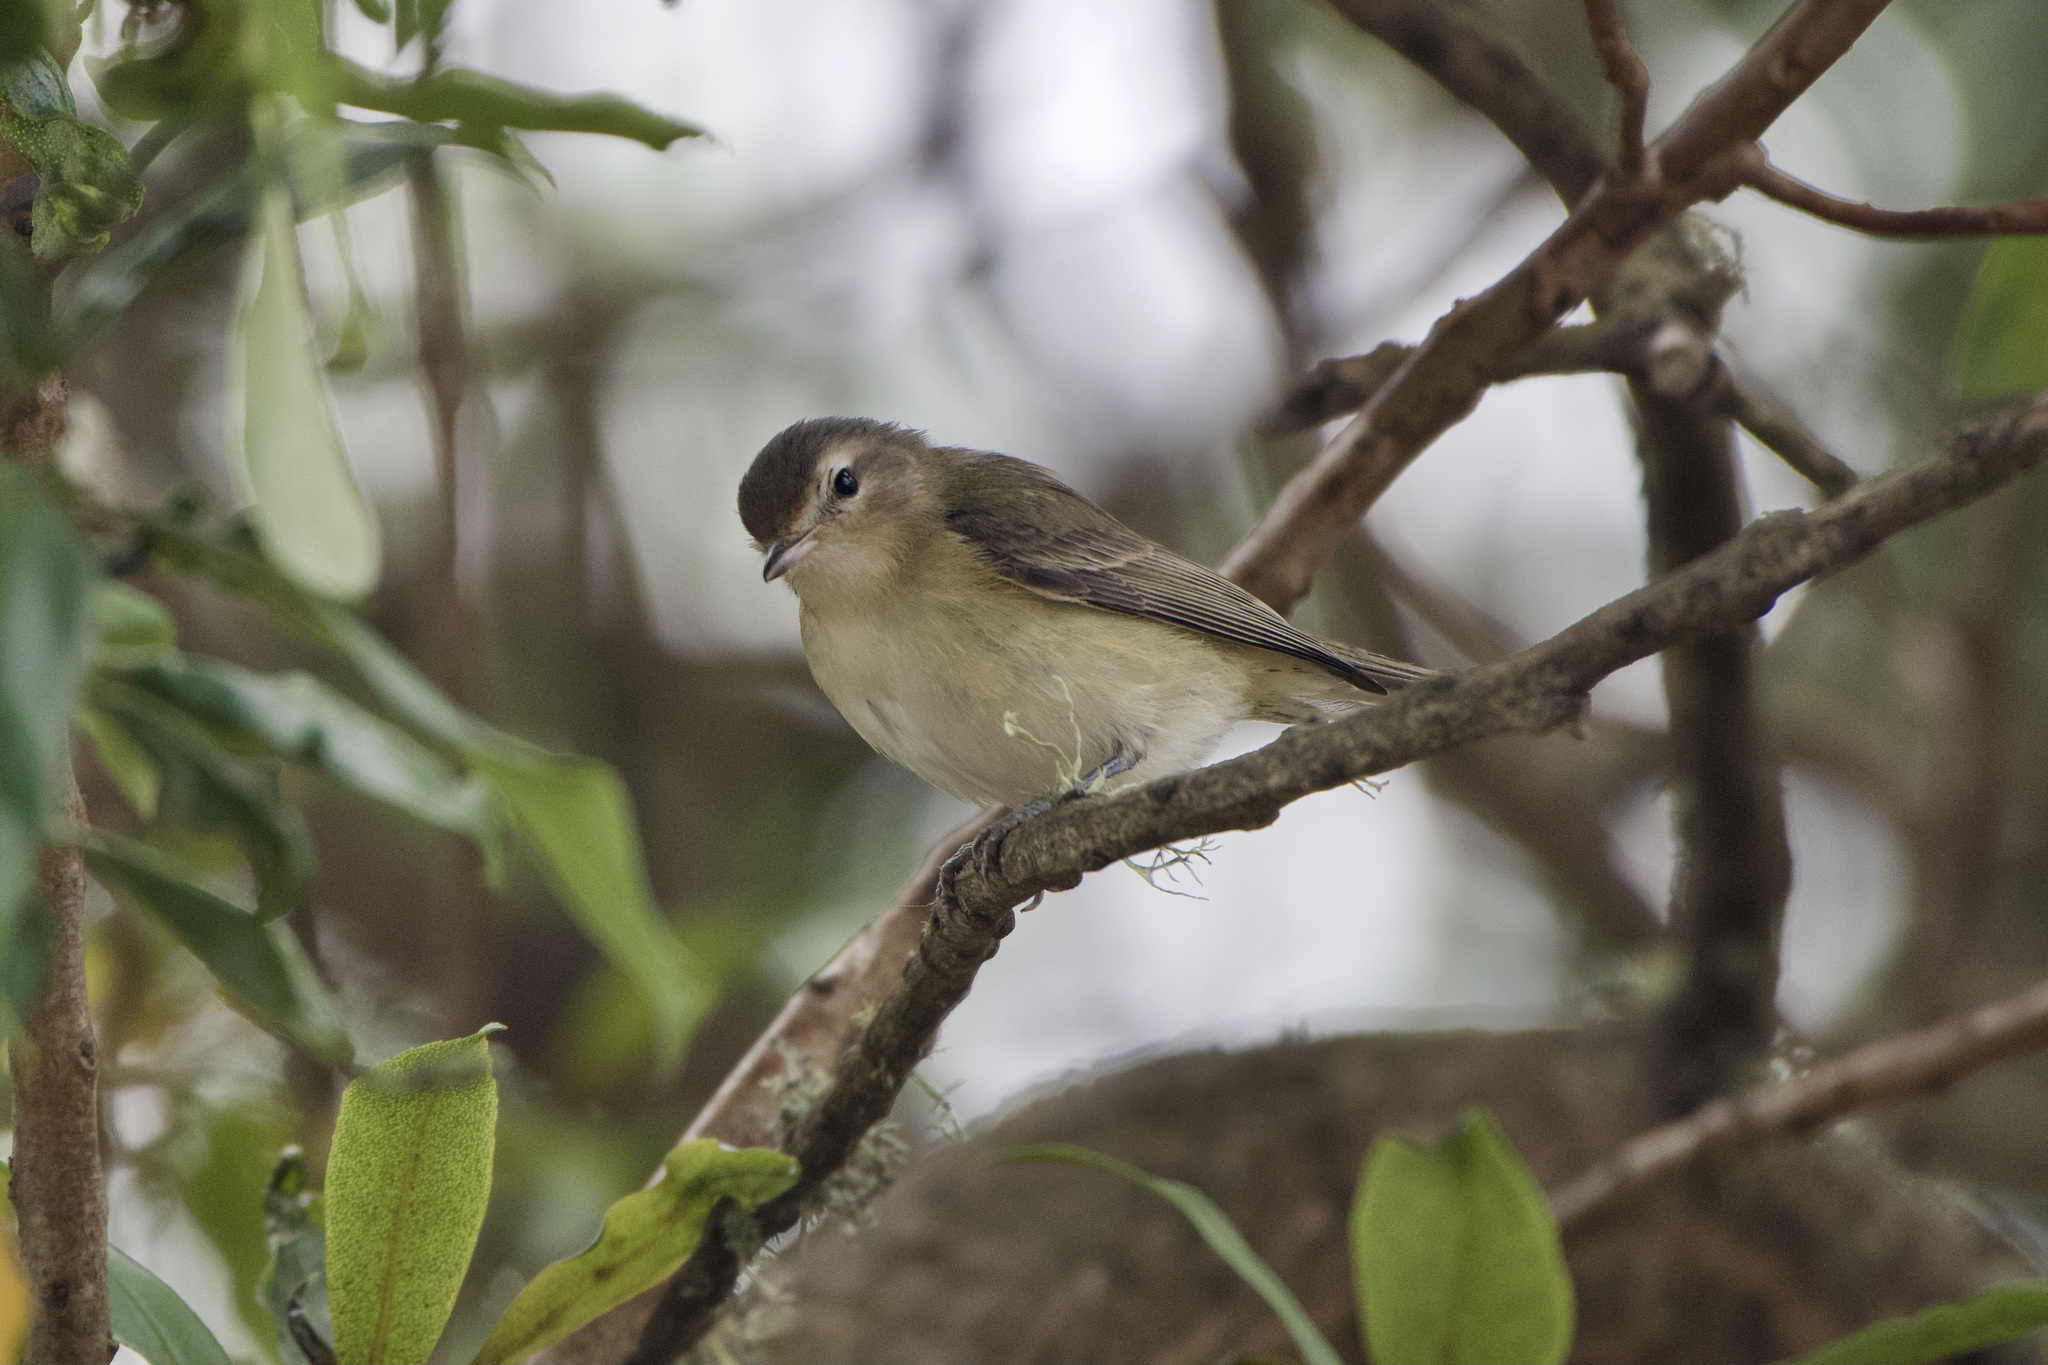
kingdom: Animalia
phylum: Chordata
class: Aves
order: Passeriformes
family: Vireonidae
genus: Vireo
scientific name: Vireo gilvus
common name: Warbling vireo
